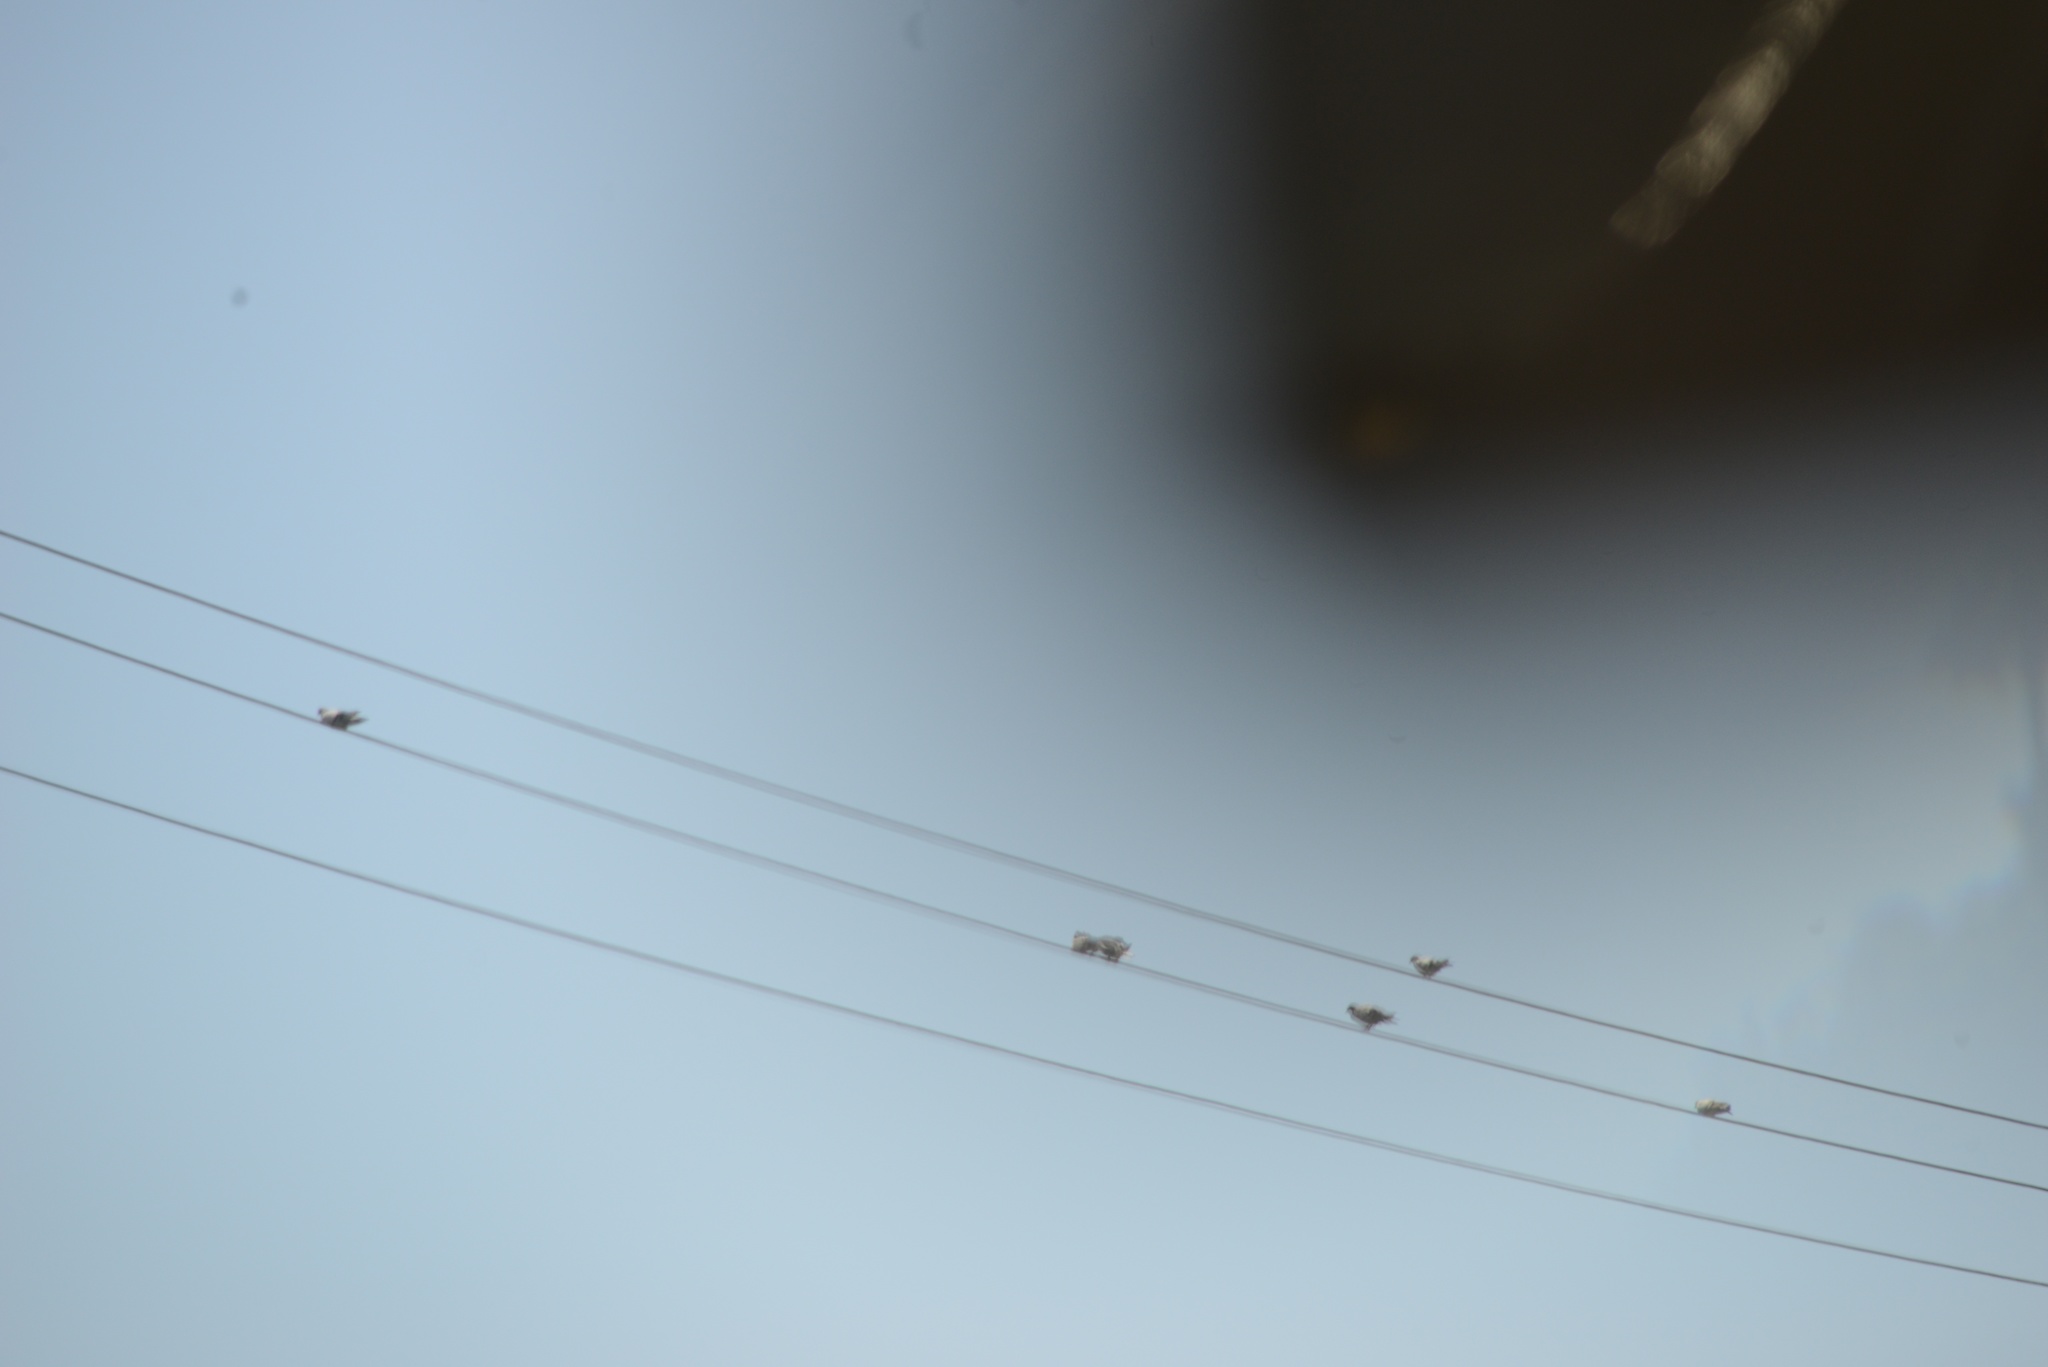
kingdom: Animalia
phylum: Chordata
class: Aves
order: Columbiformes
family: Columbidae
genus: Columba
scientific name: Columba livia
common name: Rock pigeon
